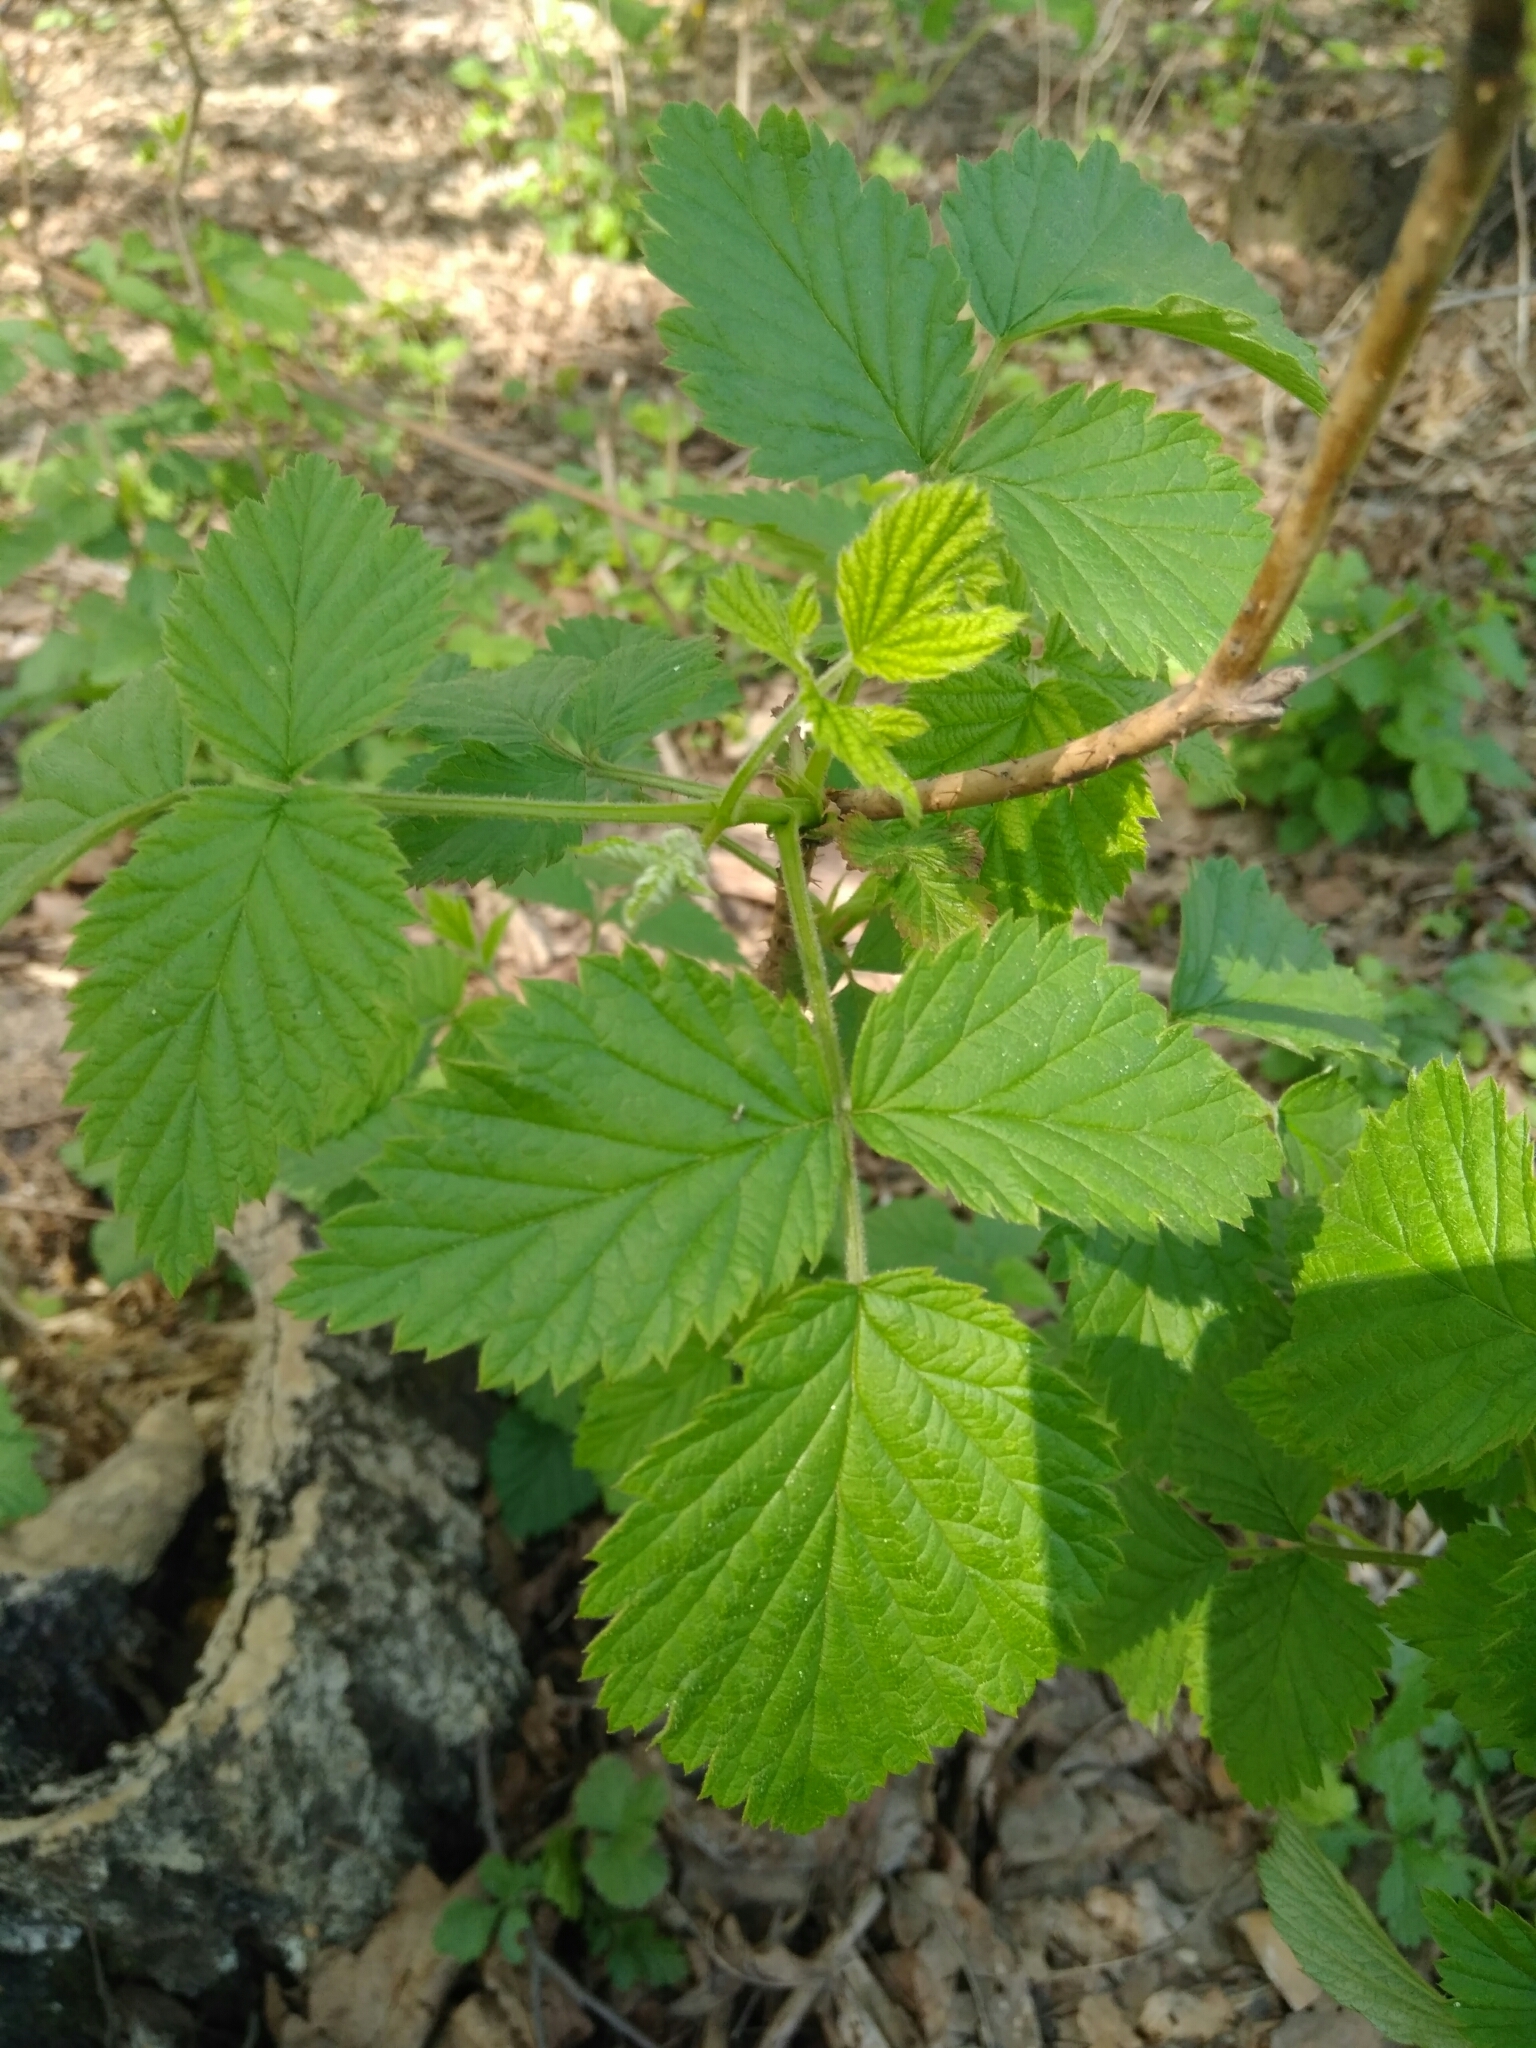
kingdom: Plantae
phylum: Tracheophyta
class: Magnoliopsida
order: Rosales
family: Rosaceae
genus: Rubus
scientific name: Rubus idaeus
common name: Raspberry
